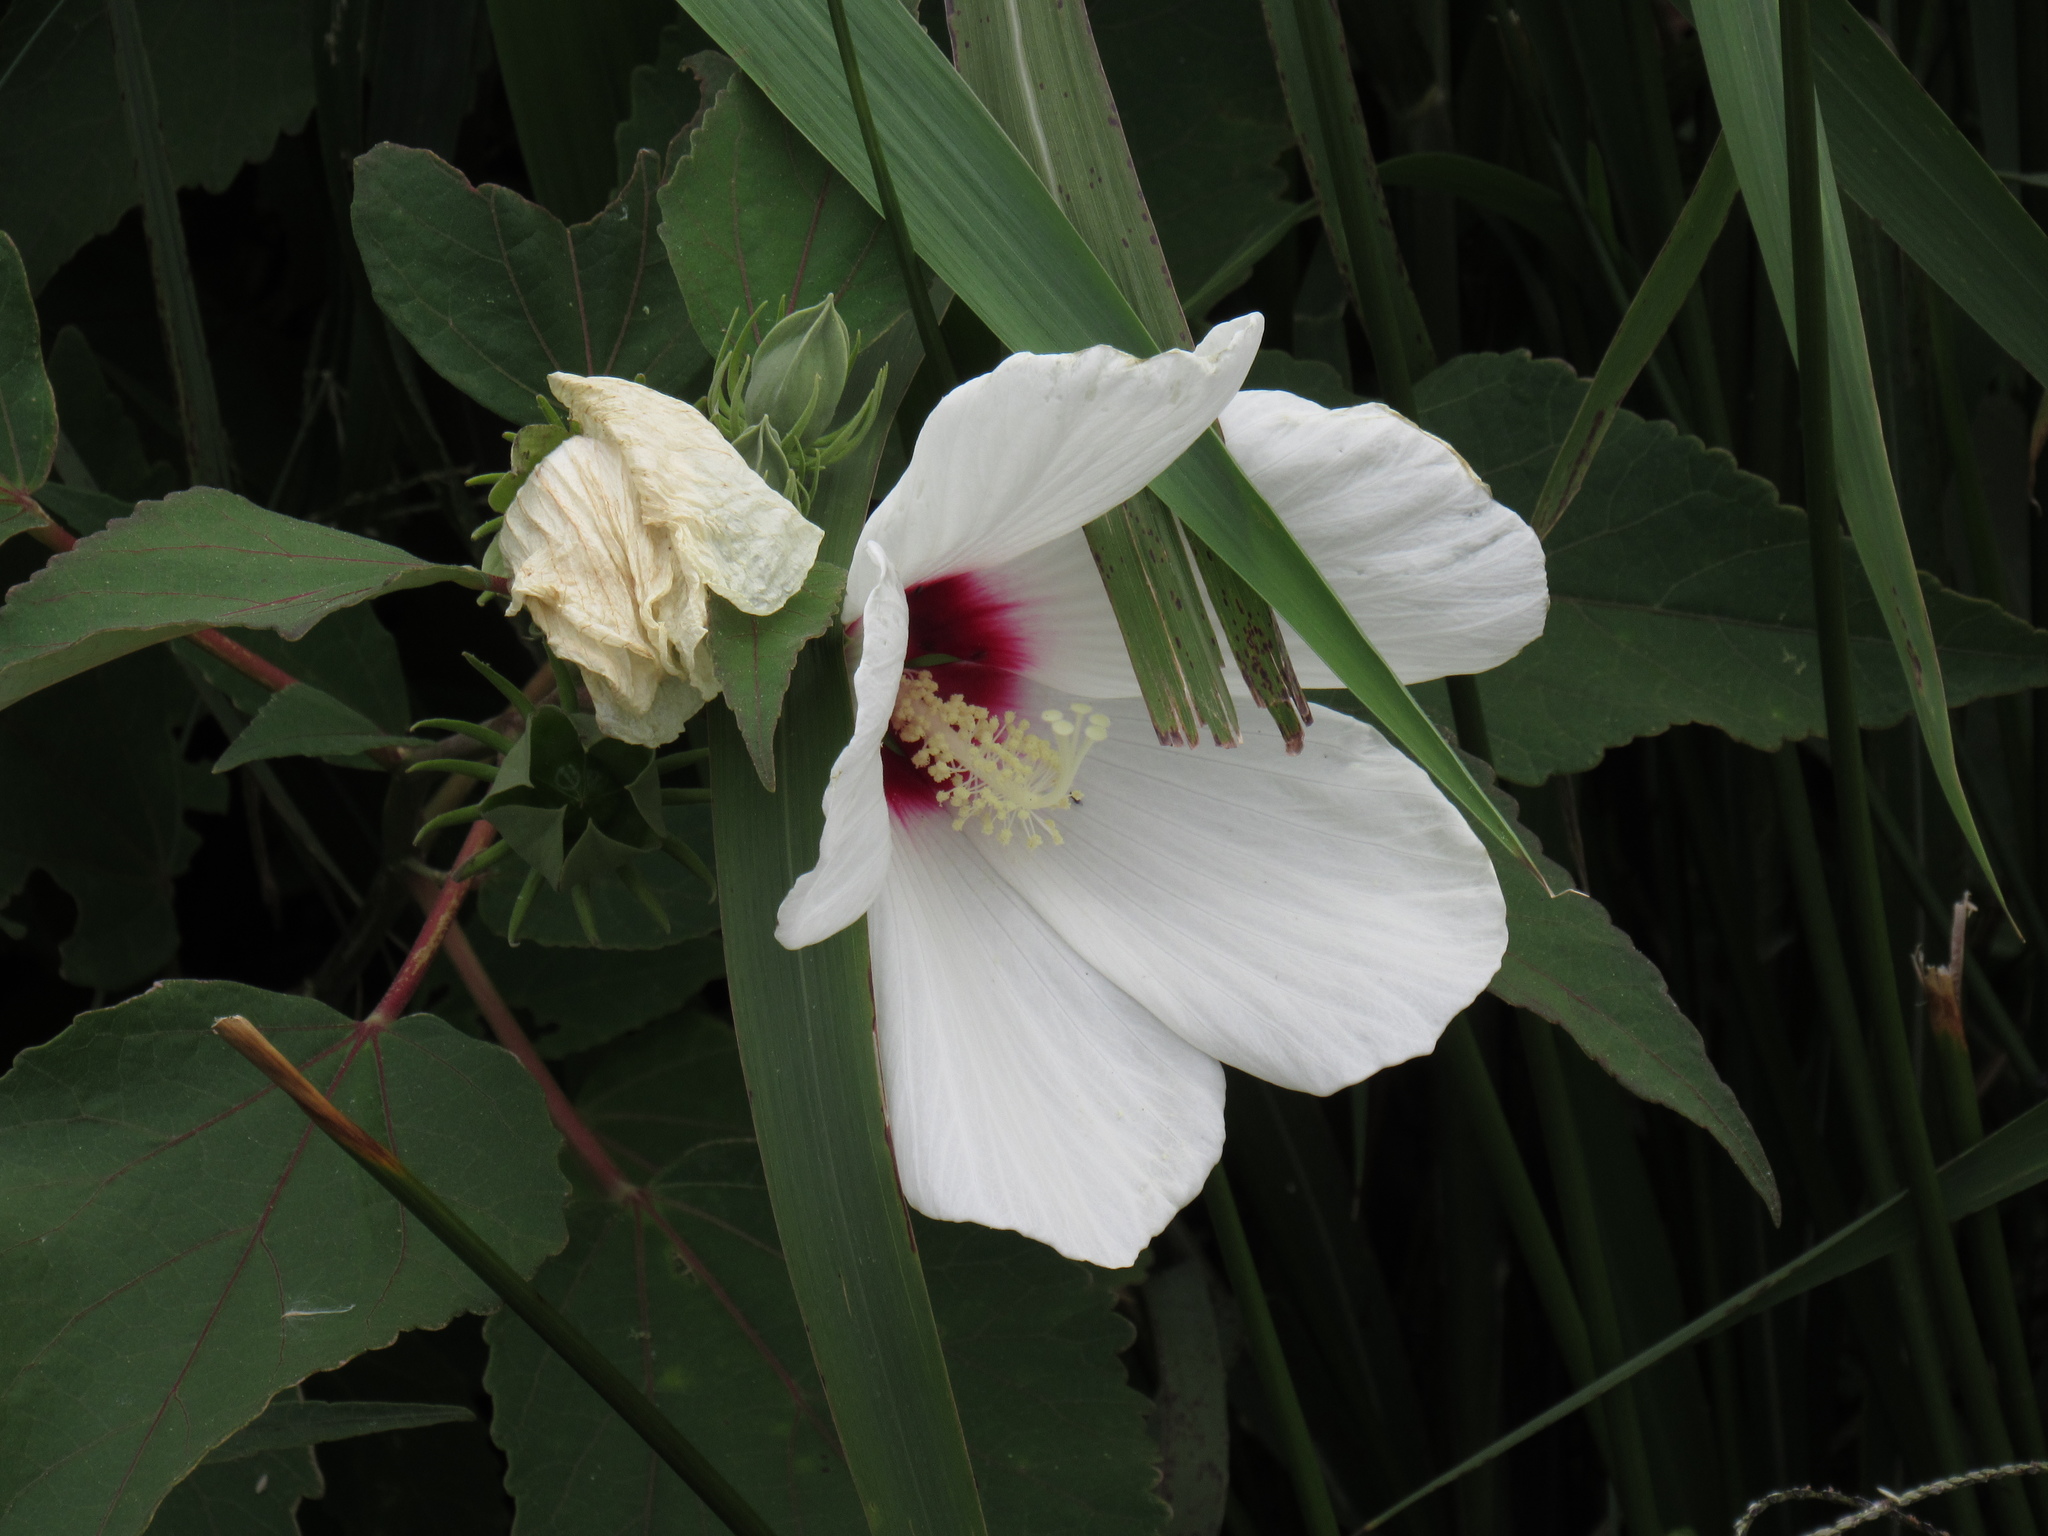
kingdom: Plantae
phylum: Tracheophyta
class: Magnoliopsida
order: Malvales
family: Malvaceae
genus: Hibiscus
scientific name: Hibiscus moscheutos
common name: Common rose-mallow
